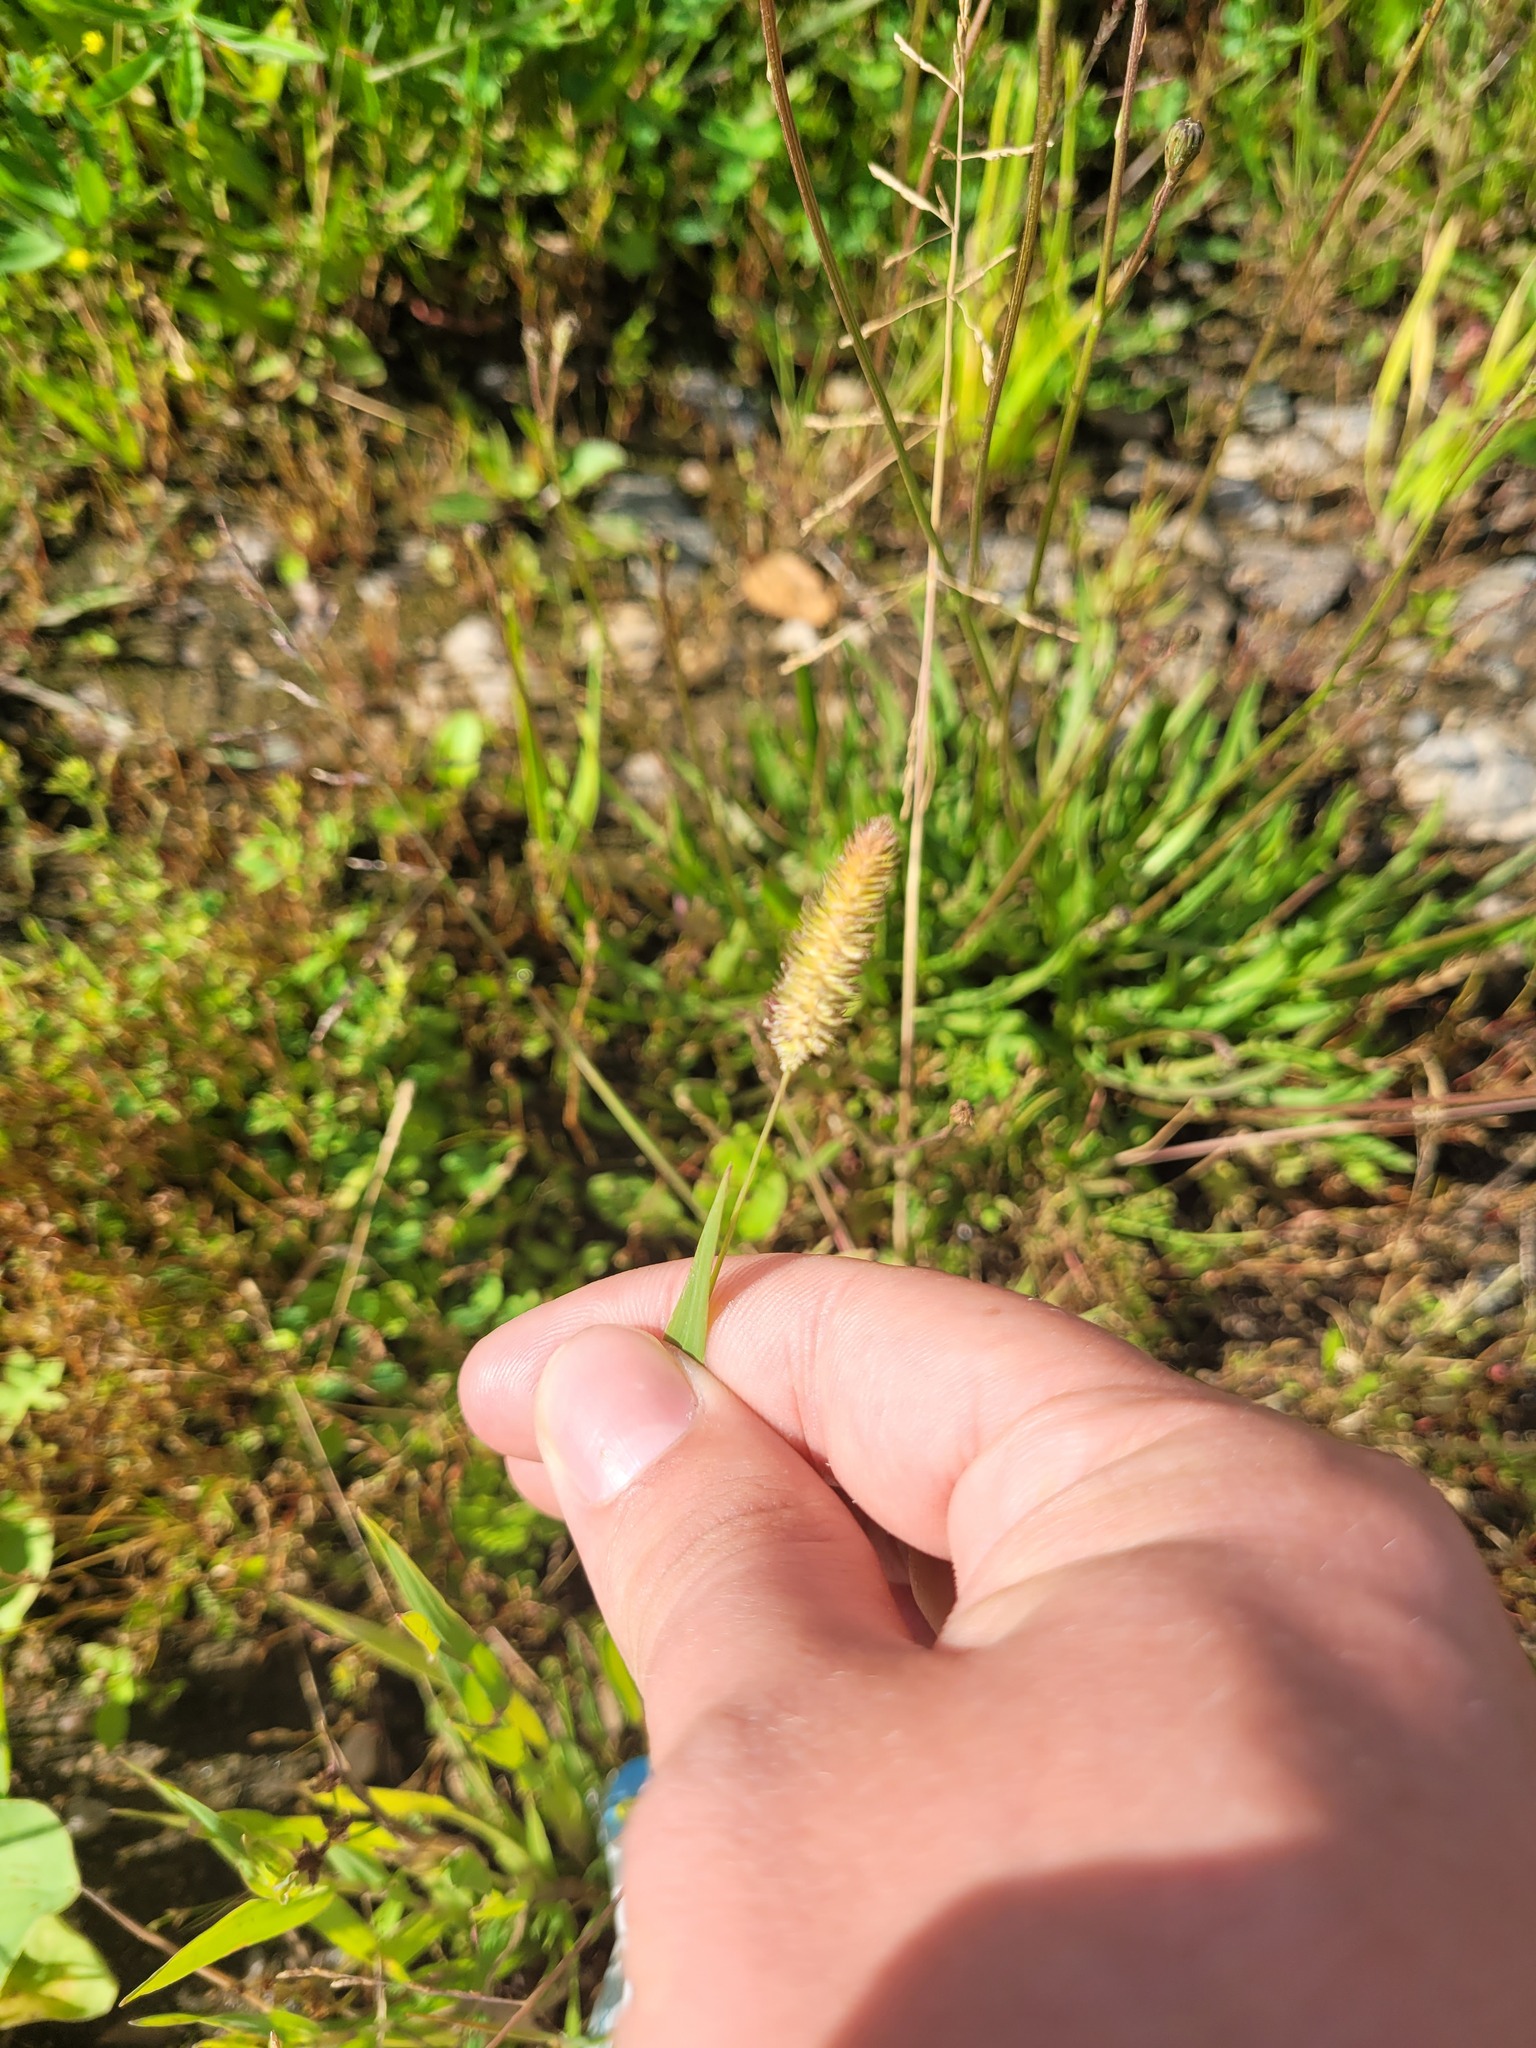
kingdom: Plantae
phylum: Tracheophyta
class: Liliopsida
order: Poales
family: Poaceae
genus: Phleum
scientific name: Phleum pratense
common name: Timothy grass
